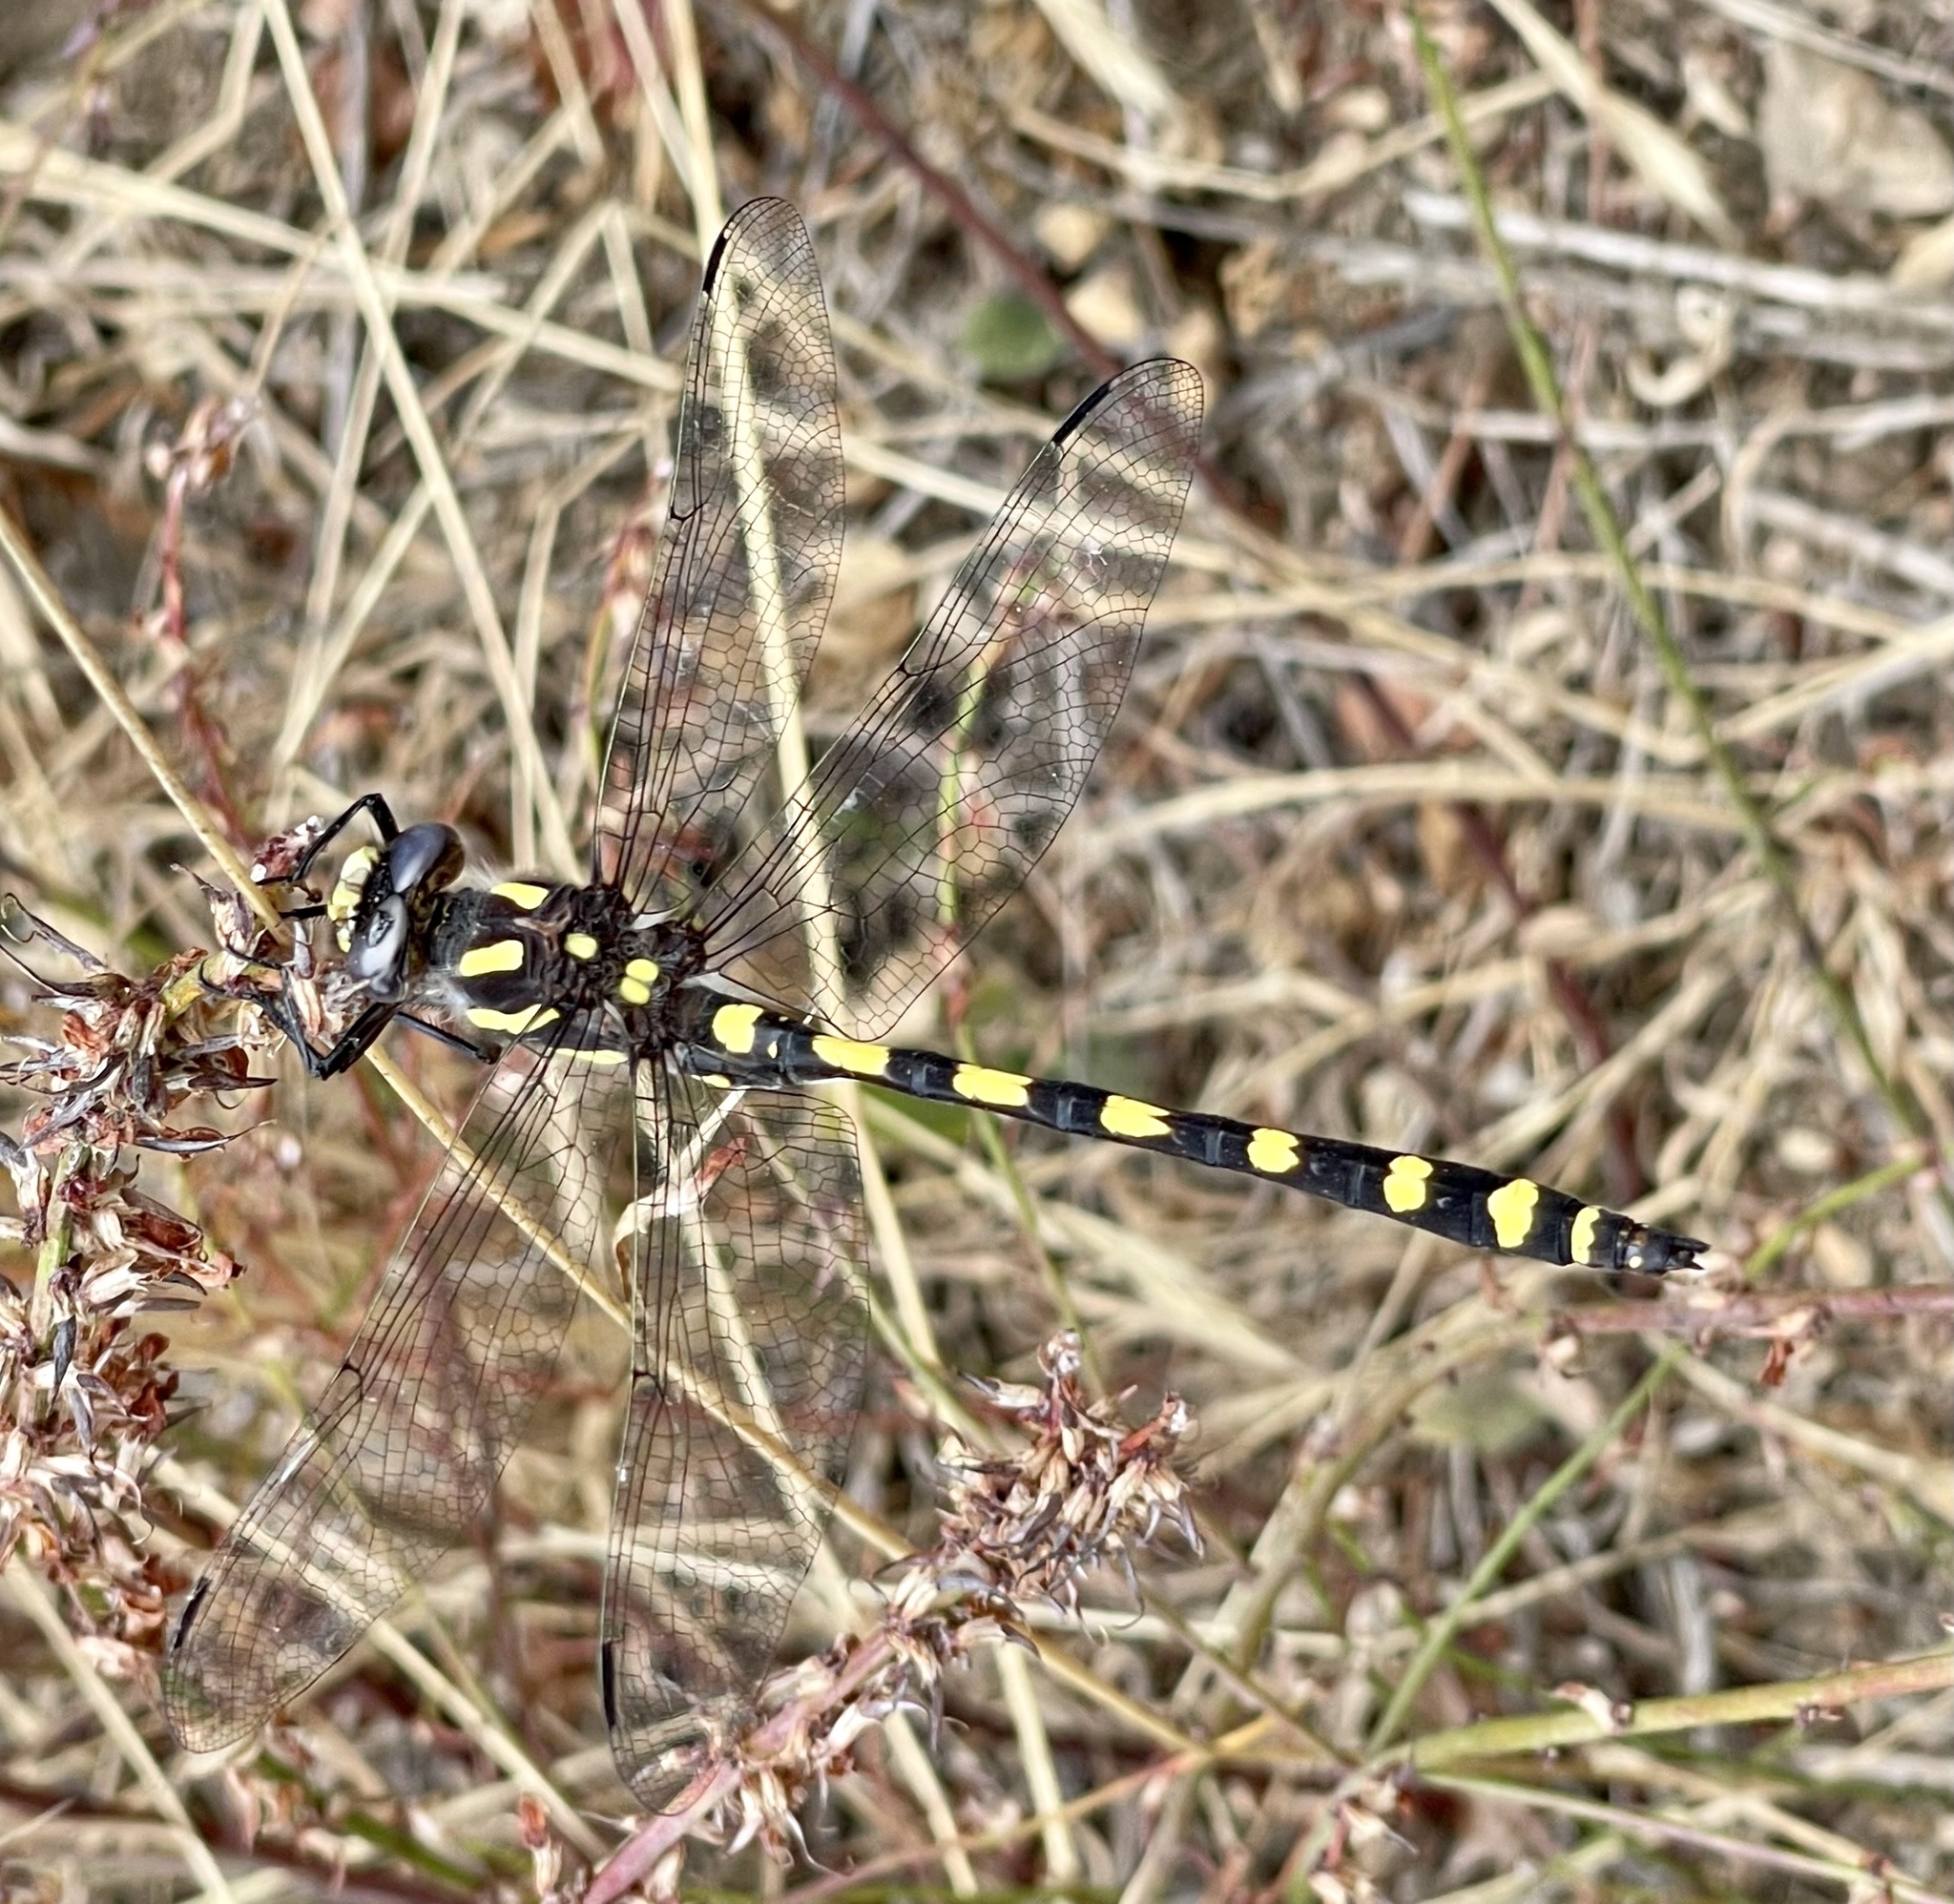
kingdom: Animalia
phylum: Arthropoda
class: Insecta
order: Odonata
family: Cordulegastridae
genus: Cordulegaster
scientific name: Cordulegaster dorsalis
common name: Pacific spiketail
